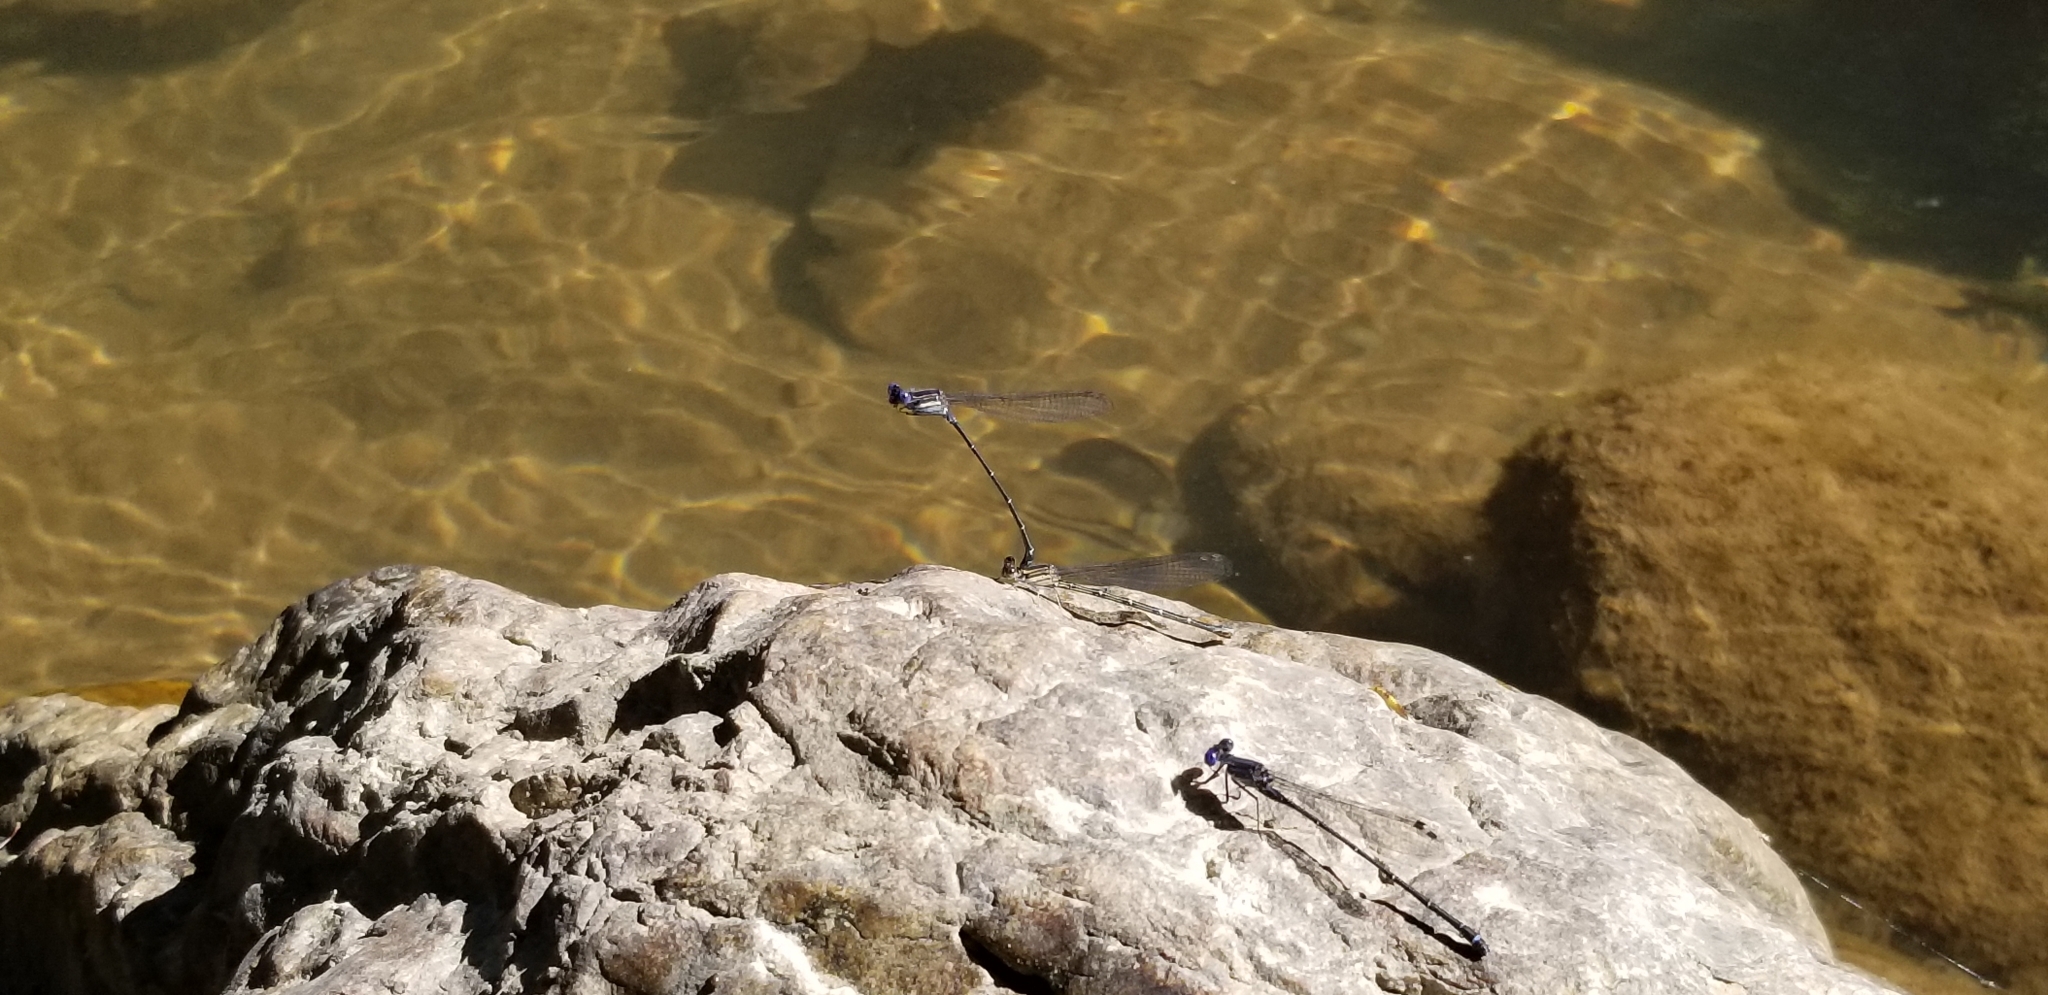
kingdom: Animalia
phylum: Arthropoda
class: Insecta
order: Odonata
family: Coenagrionidae
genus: Argia
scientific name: Argia translata
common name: Dusky dancer
